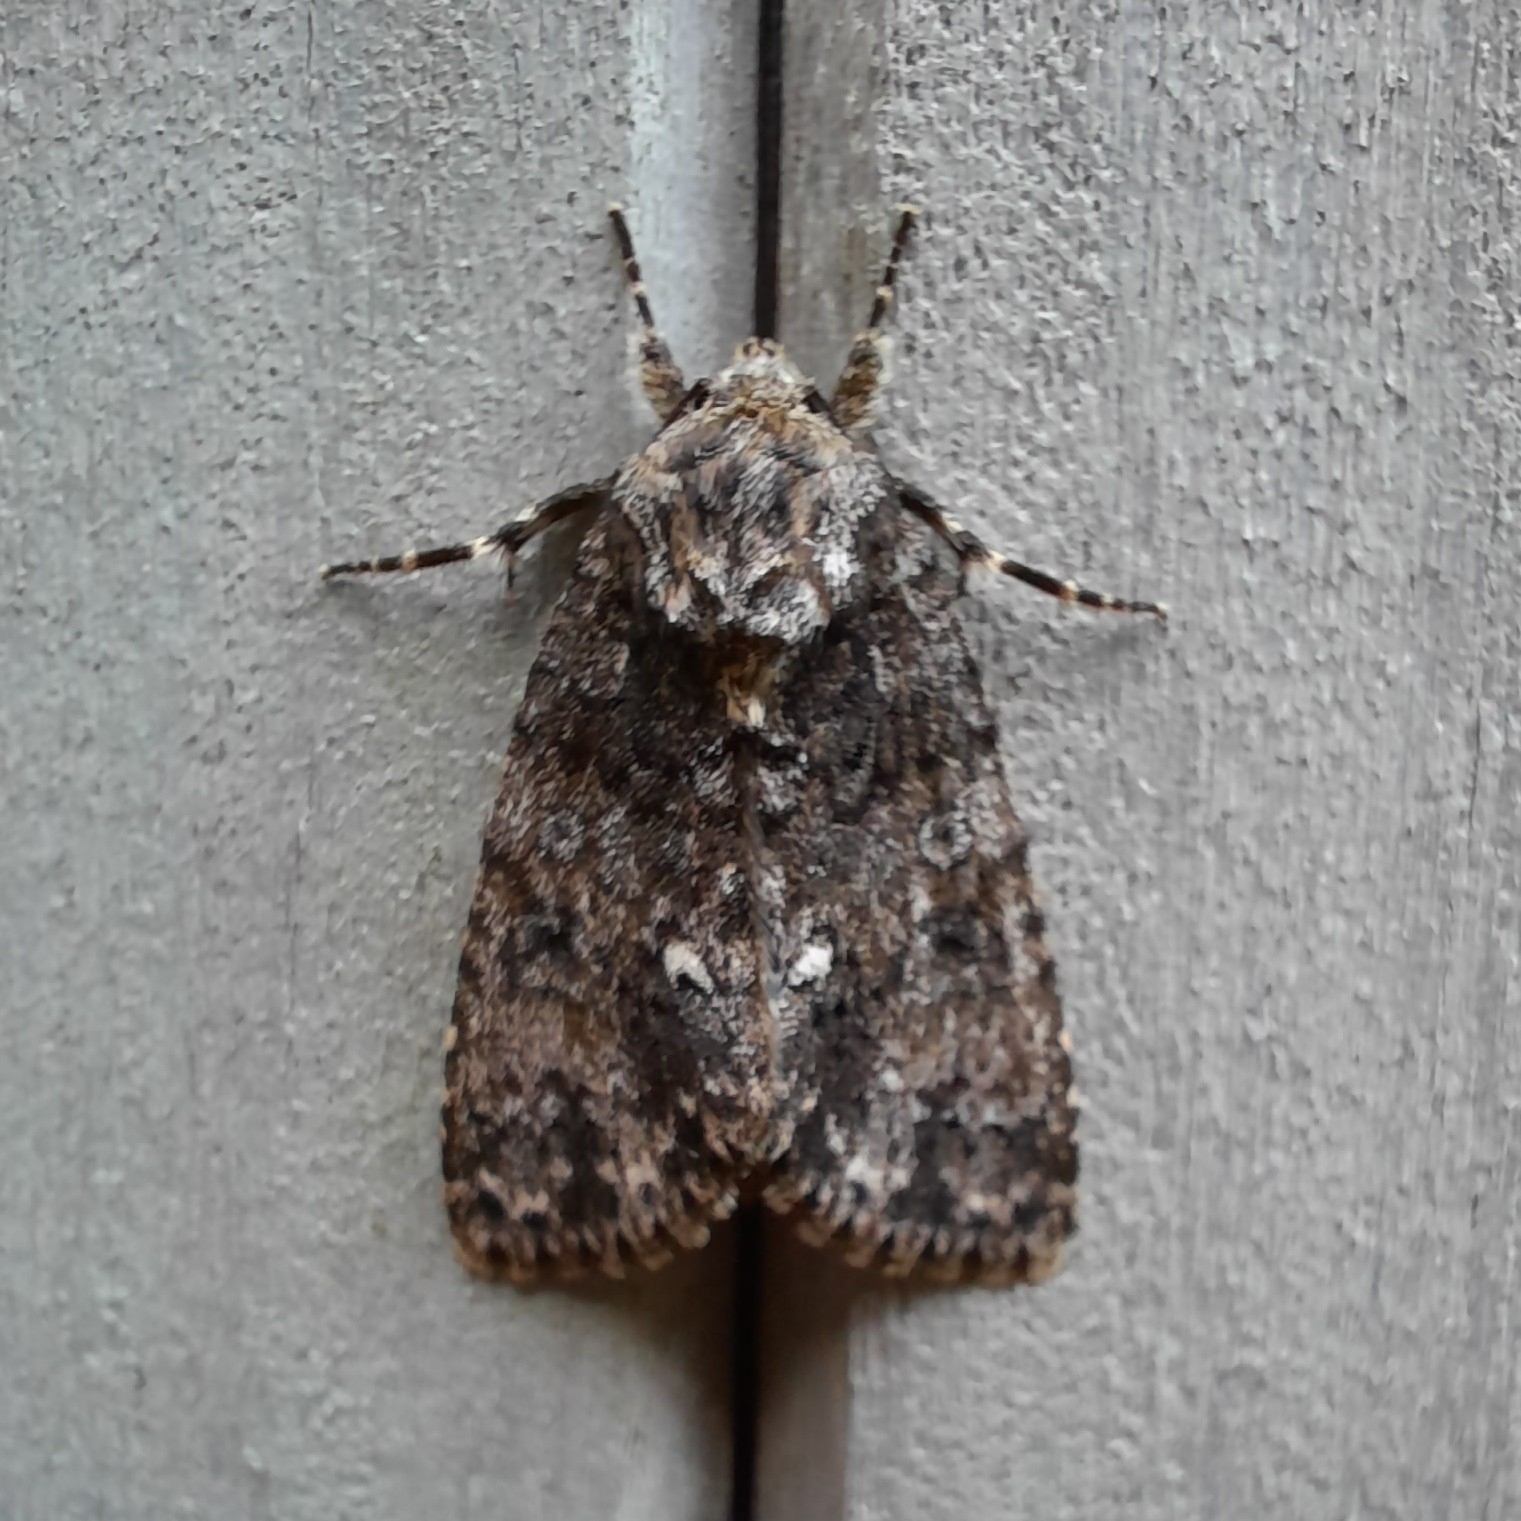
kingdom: Animalia
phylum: Arthropoda
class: Insecta
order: Lepidoptera
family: Noctuidae
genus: Acronicta
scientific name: Acronicta rumicis
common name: Knot grass
